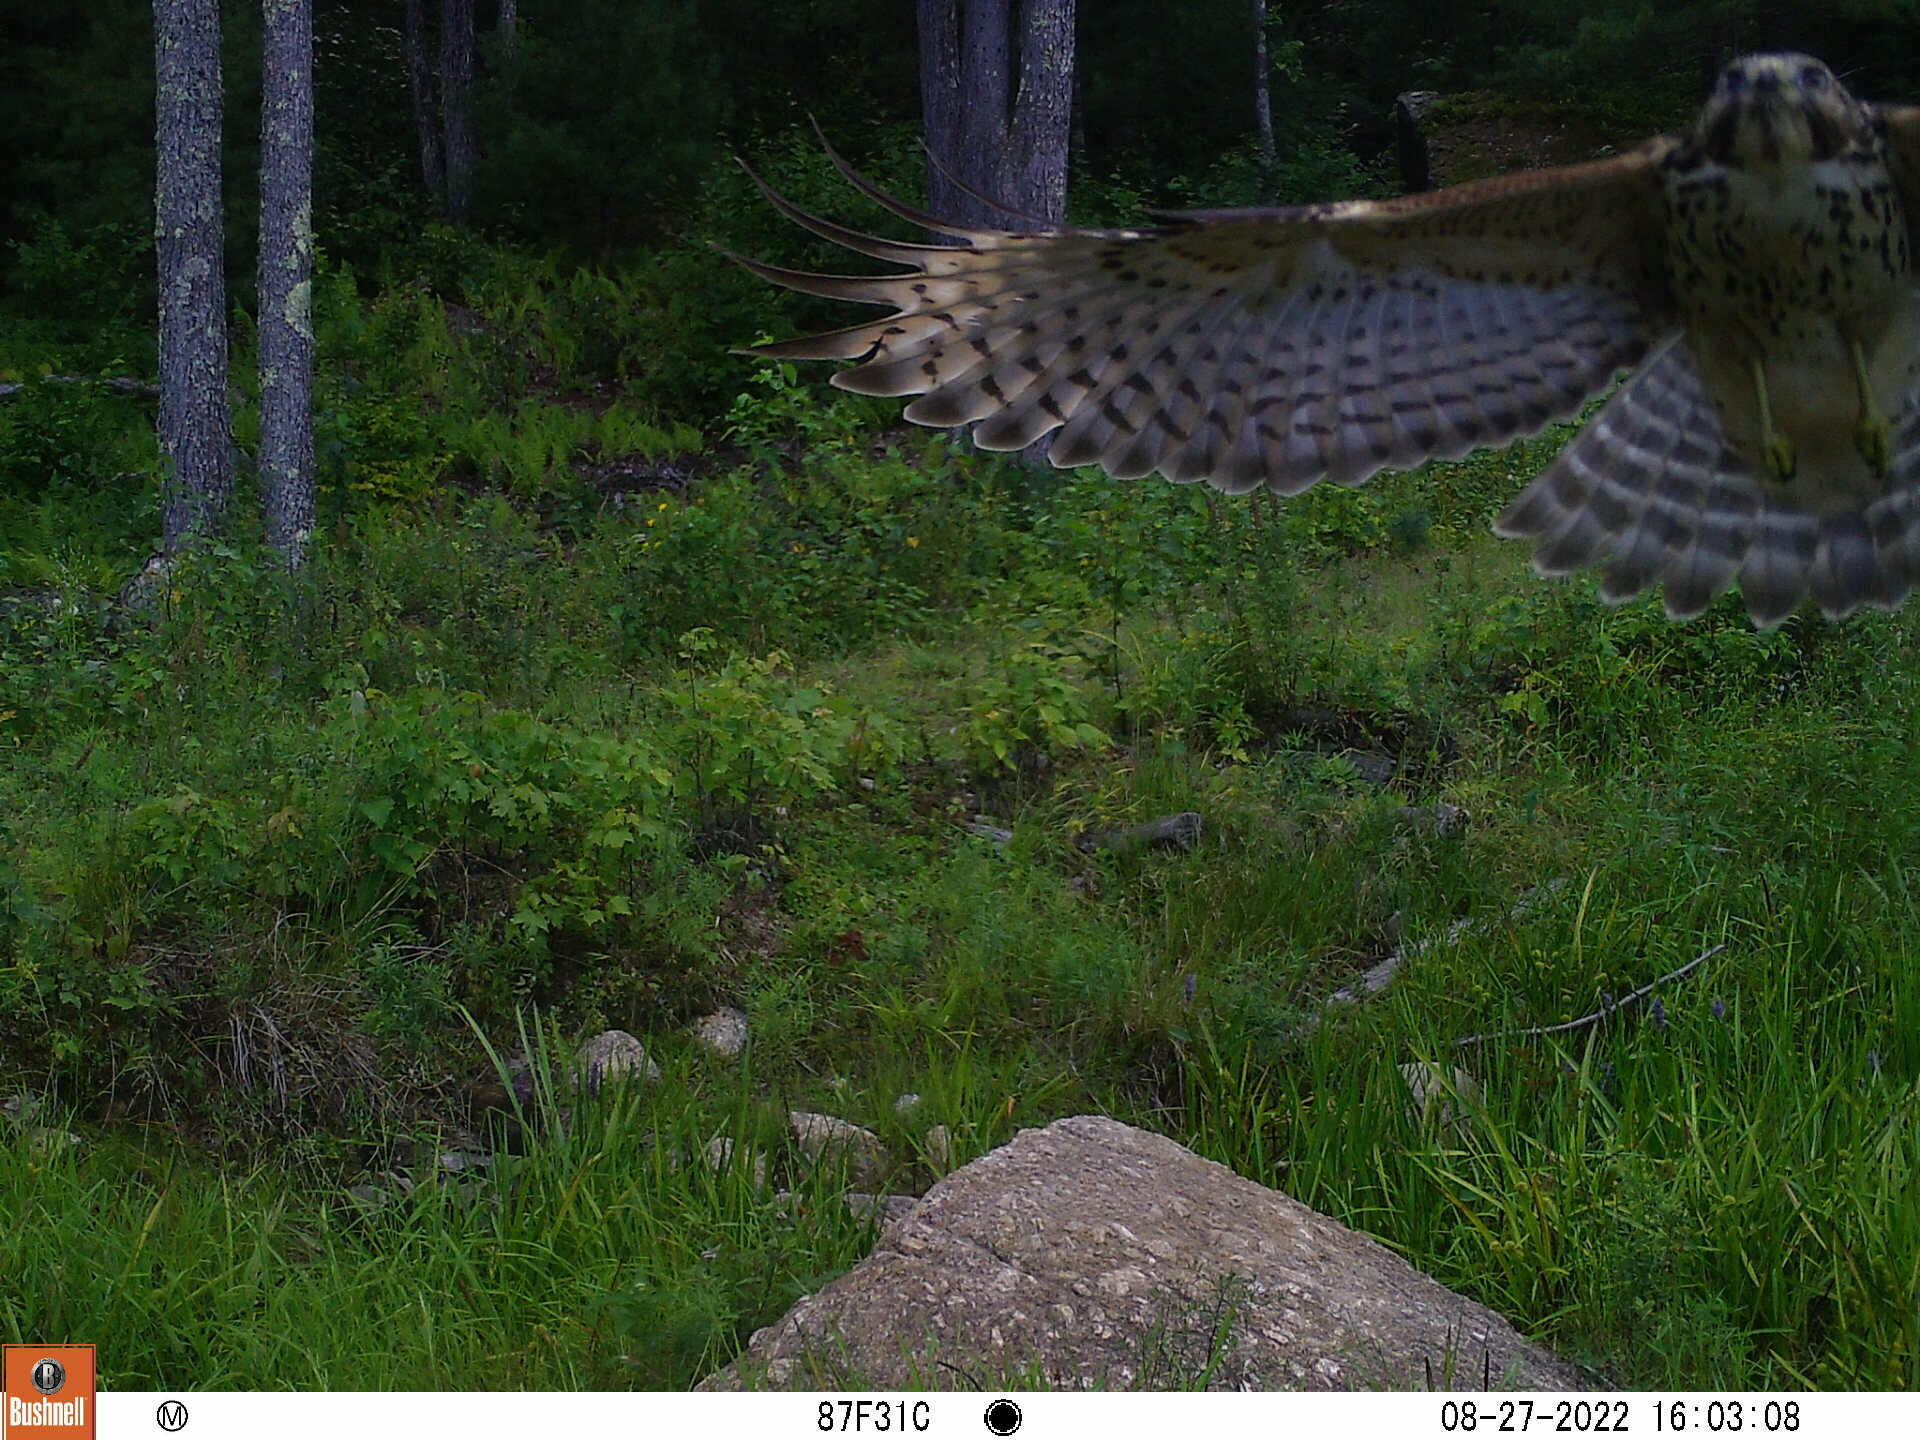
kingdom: Animalia
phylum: Chordata
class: Aves
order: Accipitriformes
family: Accipitridae
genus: Buteo
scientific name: Buteo lineatus
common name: Red-shouldered hawk
